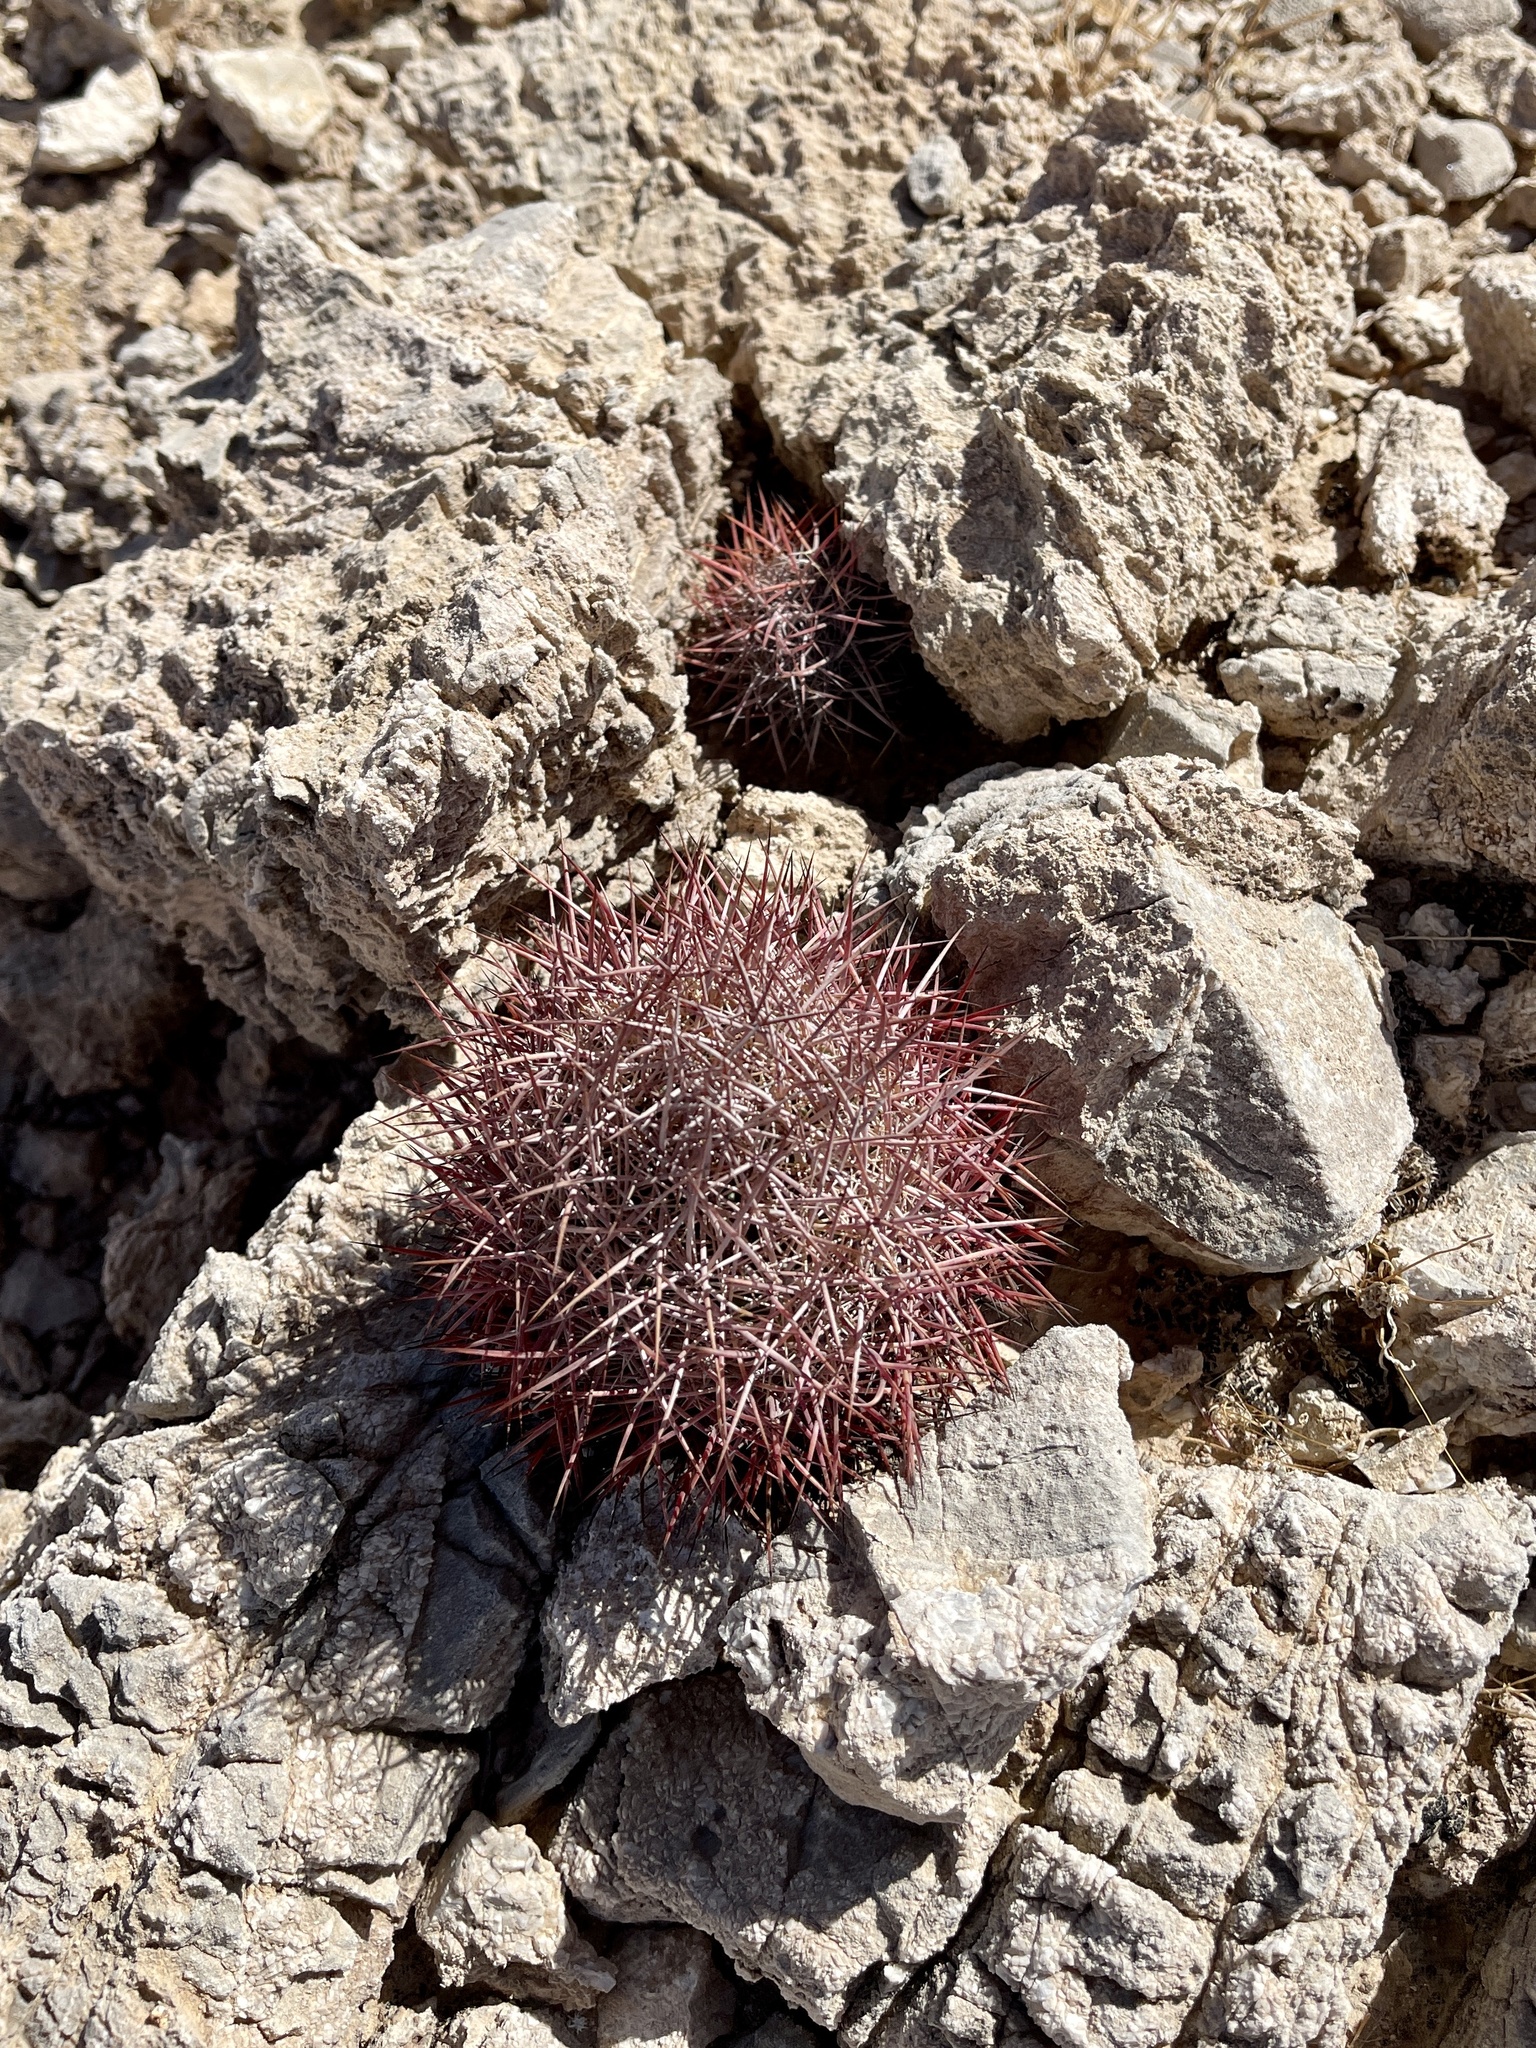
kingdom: Plantae
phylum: Tracheophyta
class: Magnoliopsida
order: Caryophyllales
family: Cactaceae
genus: Sclerocactus
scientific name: Sclerocactus johnsonii
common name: Eight-spine fishhook cactus
